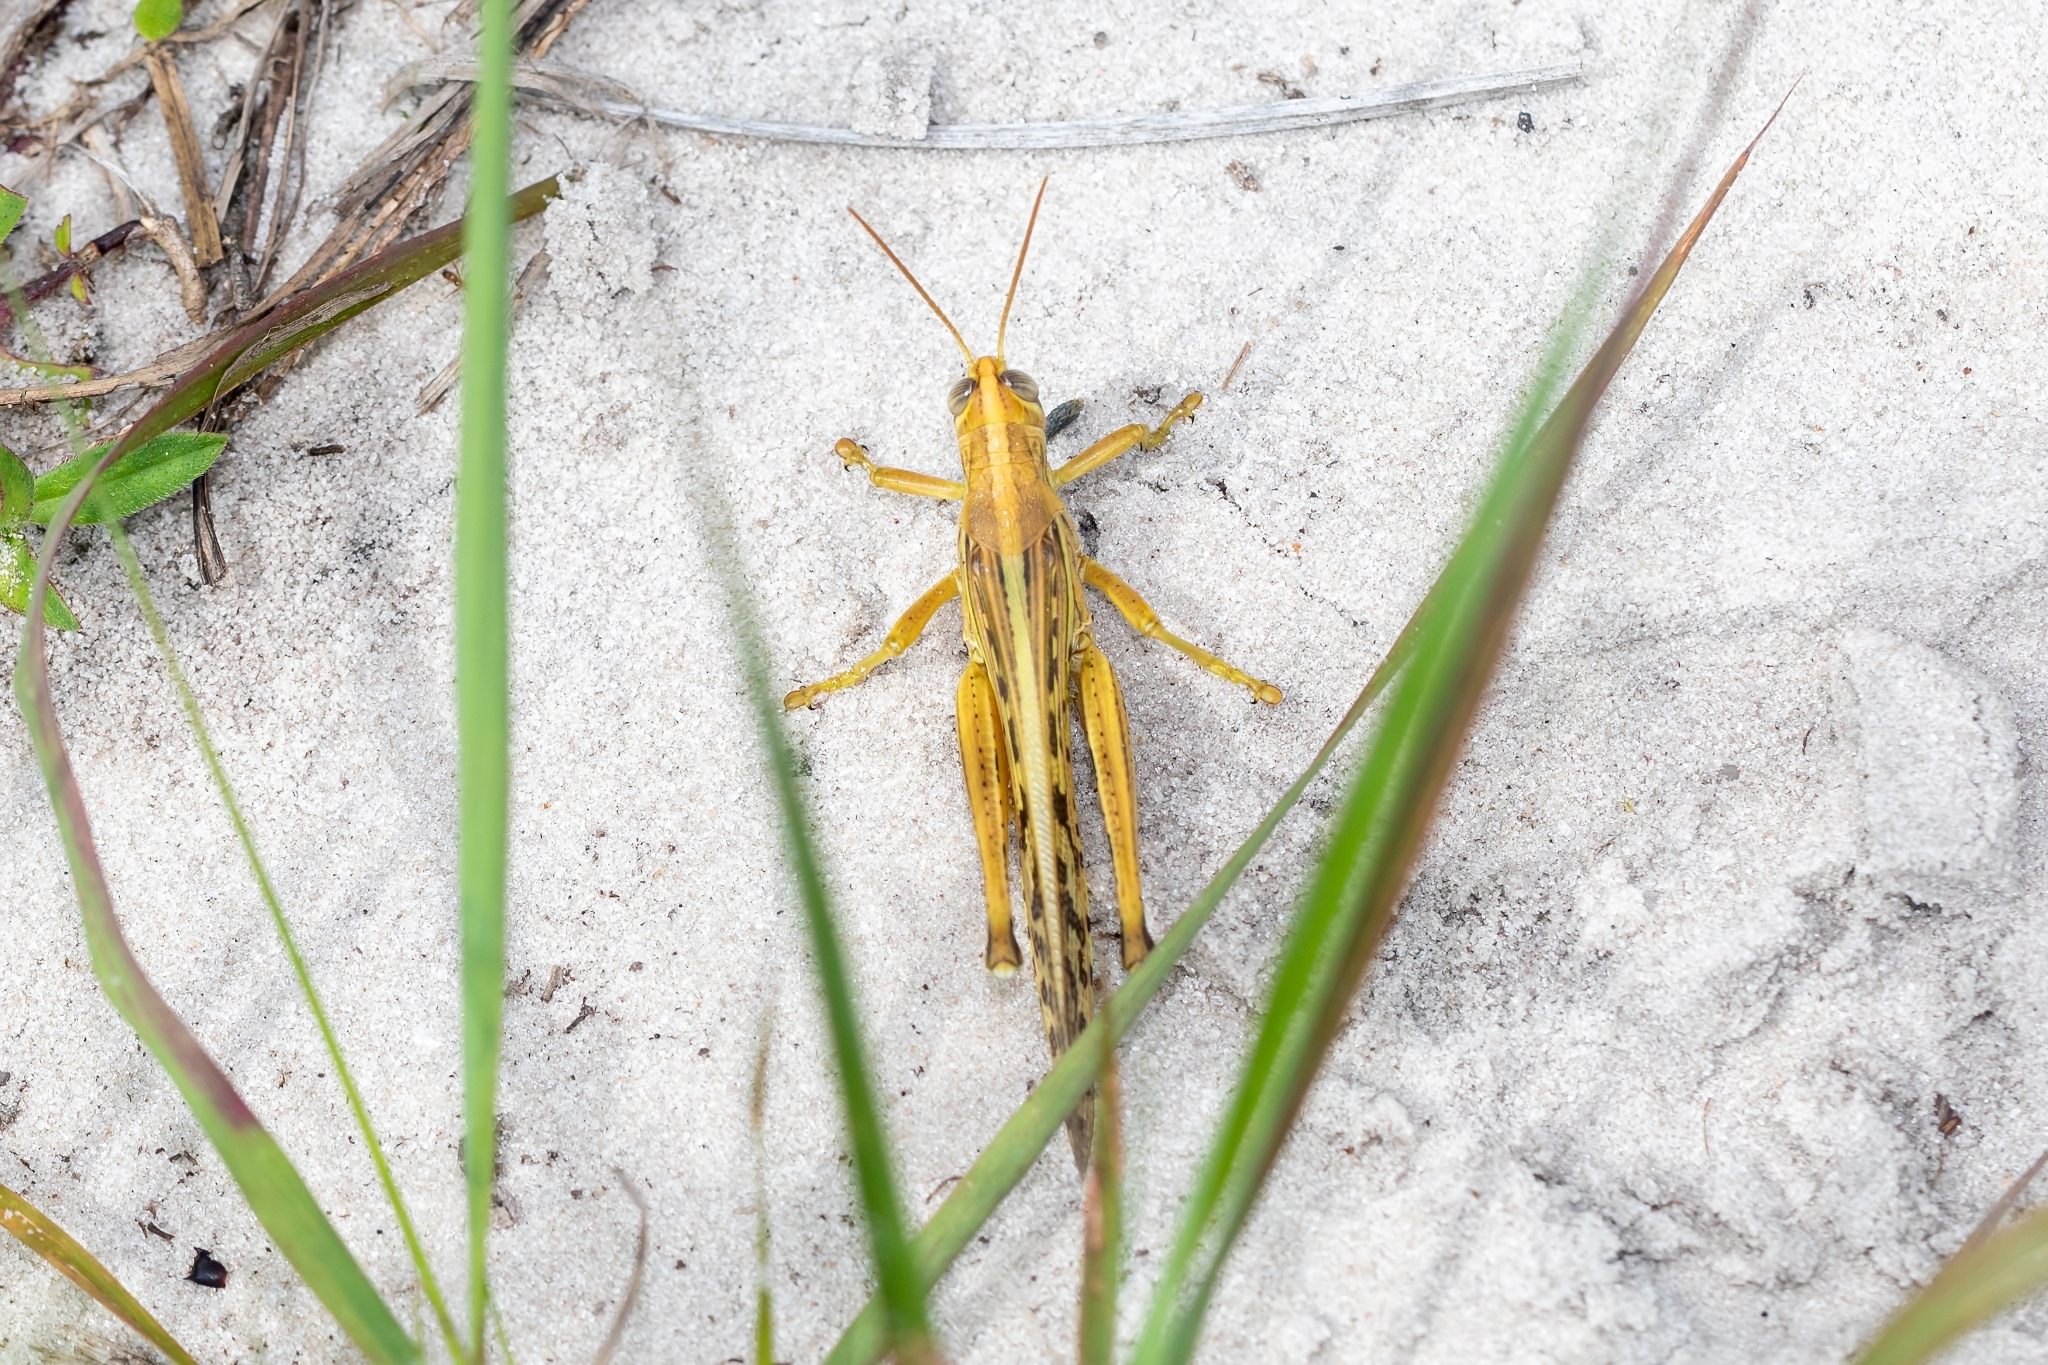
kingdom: Animalia
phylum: Arthropoda
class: Insecta
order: Orthoptera
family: Acrididae
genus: Schistocerca
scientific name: Schistocerca americana
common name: American bird locust
